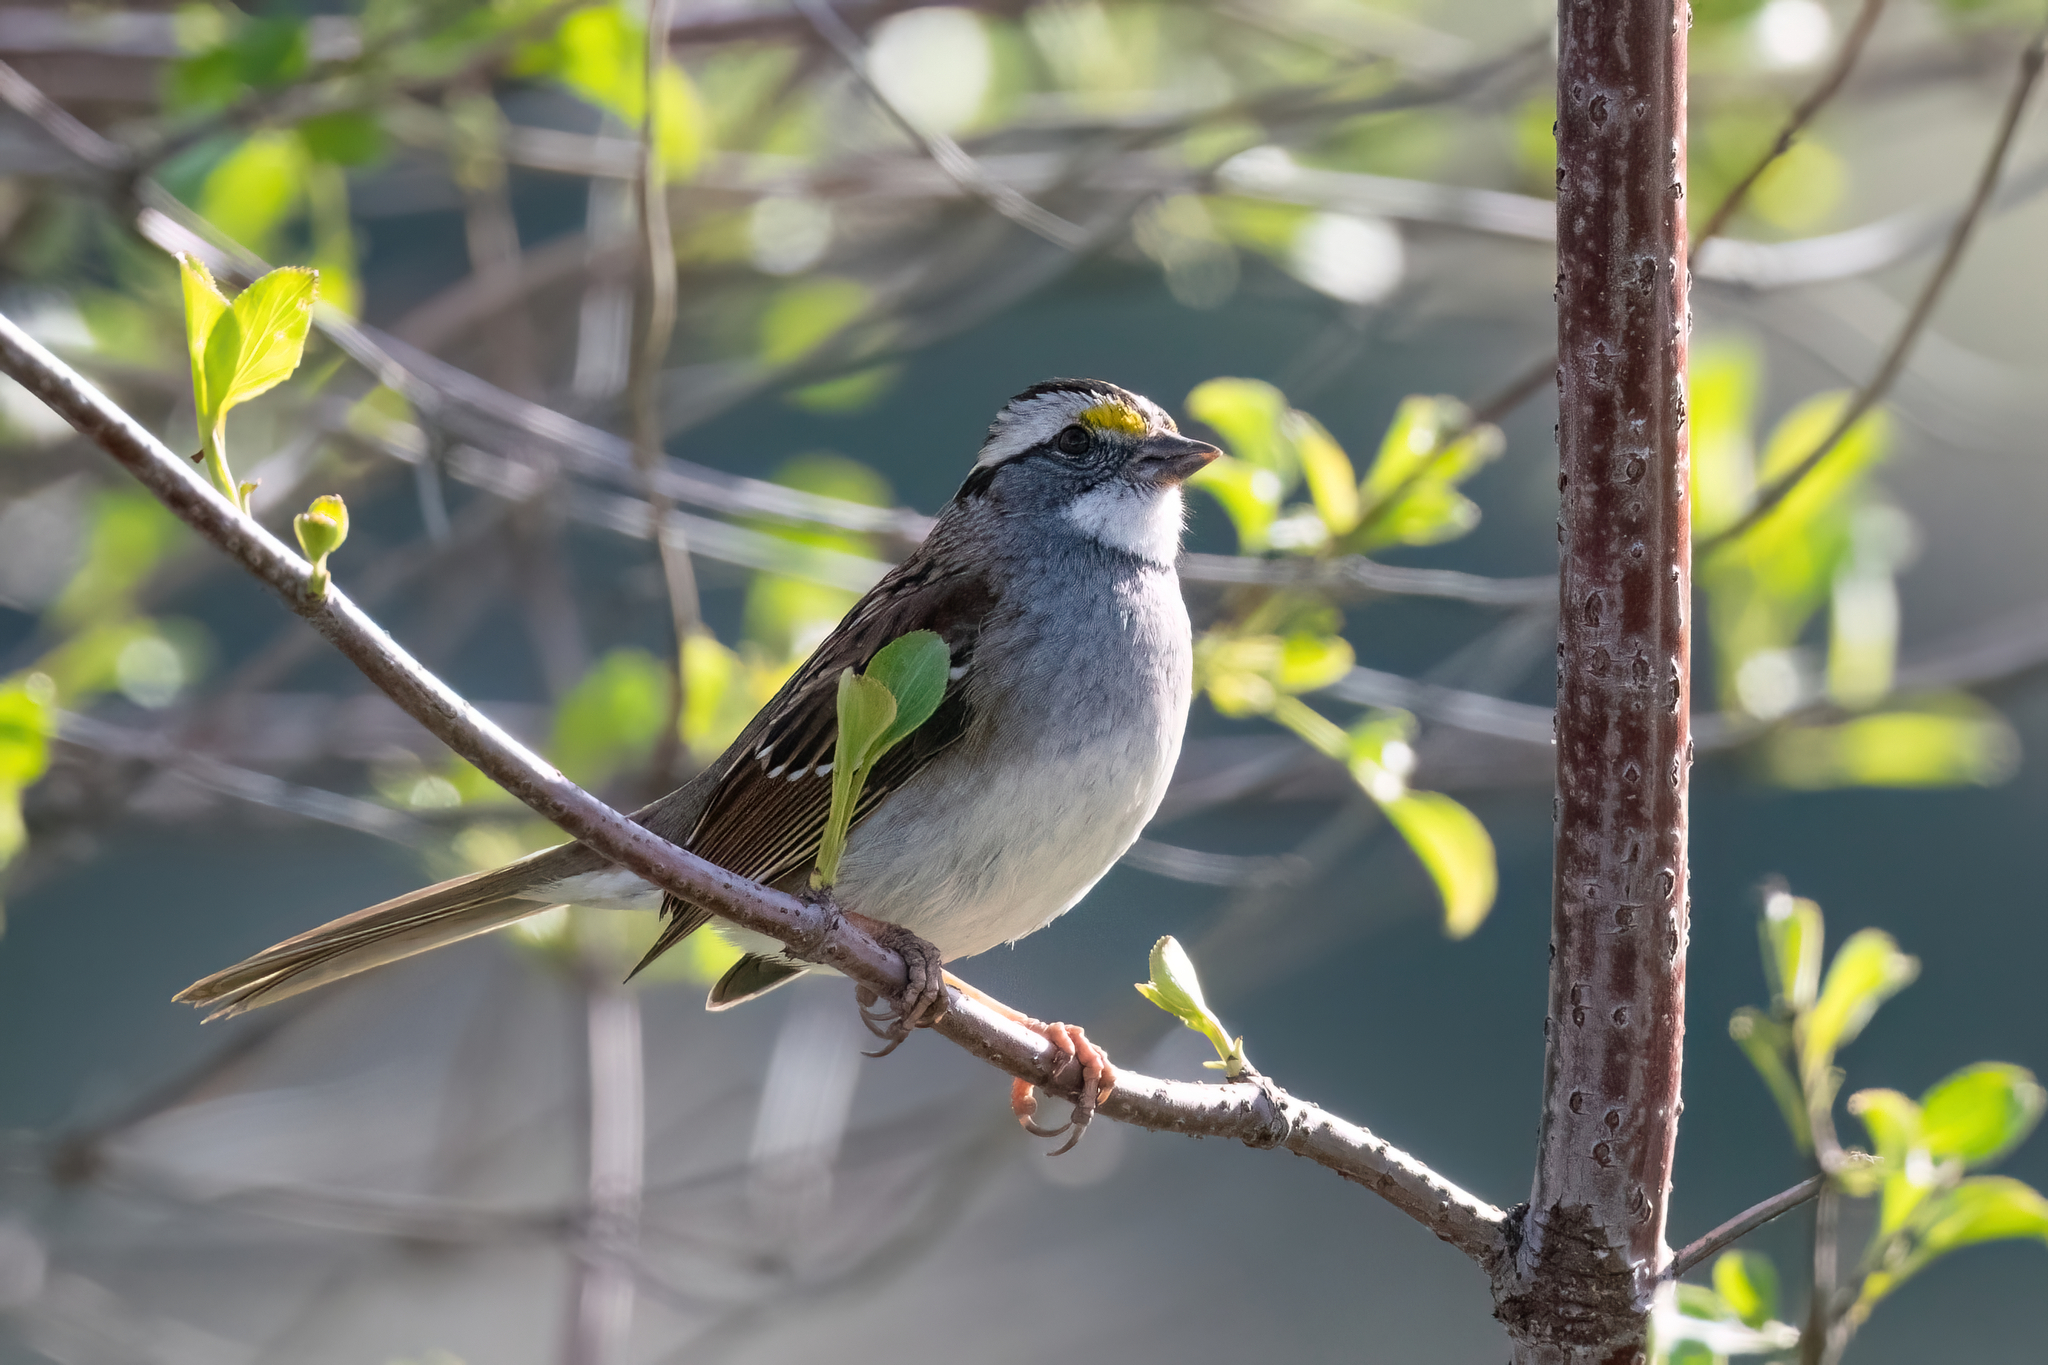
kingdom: Animalia
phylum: Chordata
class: Aves
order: Passeriformes
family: Passerellidae
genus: Zonotrichia
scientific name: Zonotrichia albicollis
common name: White-throated sparrow
